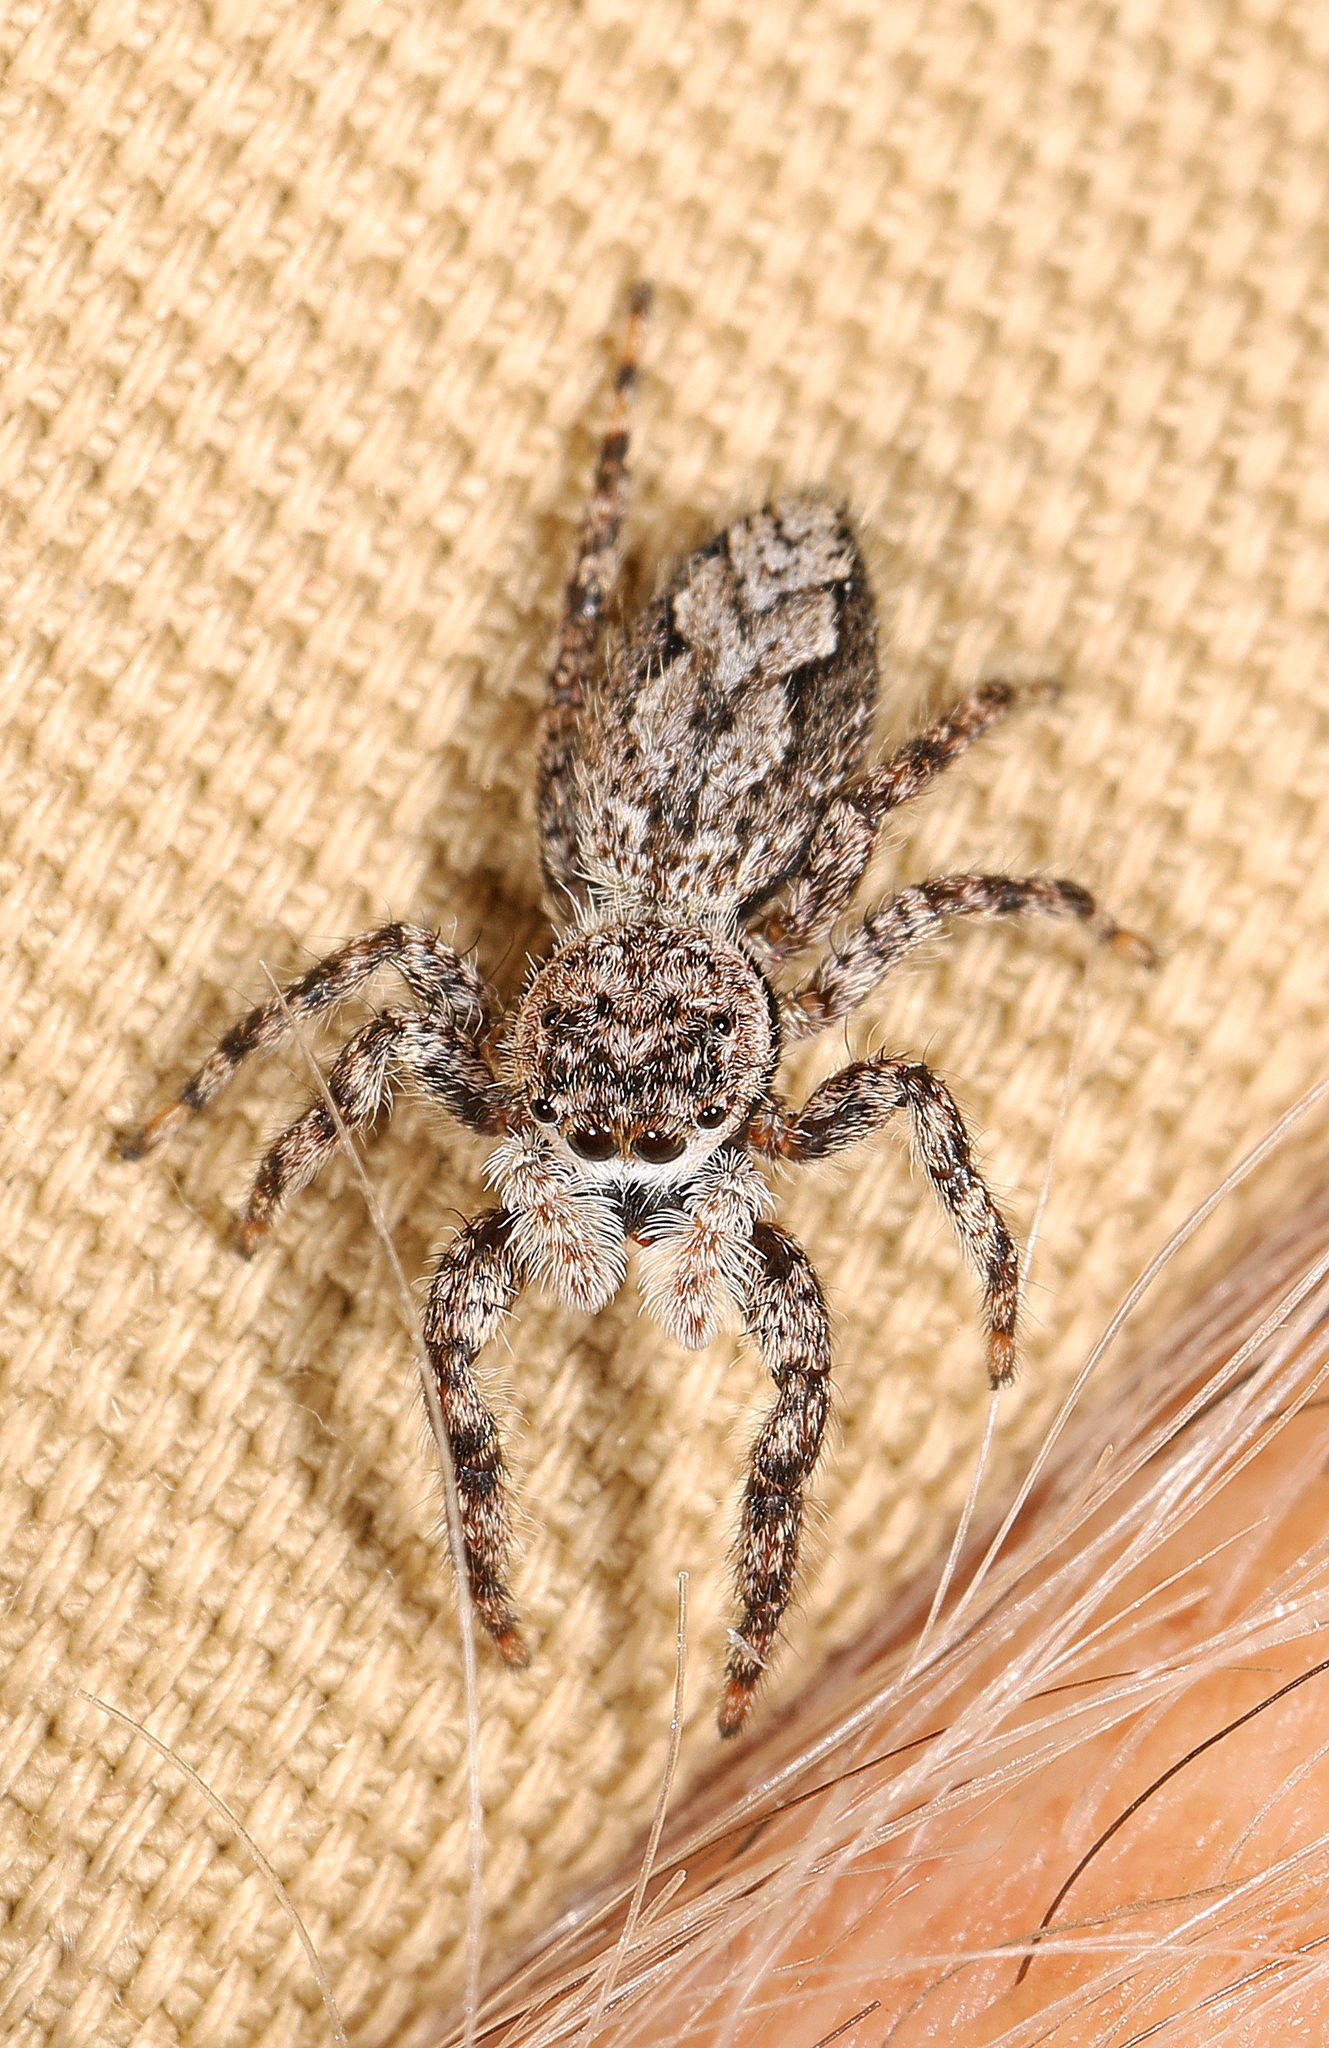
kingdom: Animalia
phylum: Arthropoda
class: Arachnida
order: Araneae
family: Salticidae
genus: Platycryptus
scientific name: Platycryptus undatus
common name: Tan jumping spider
